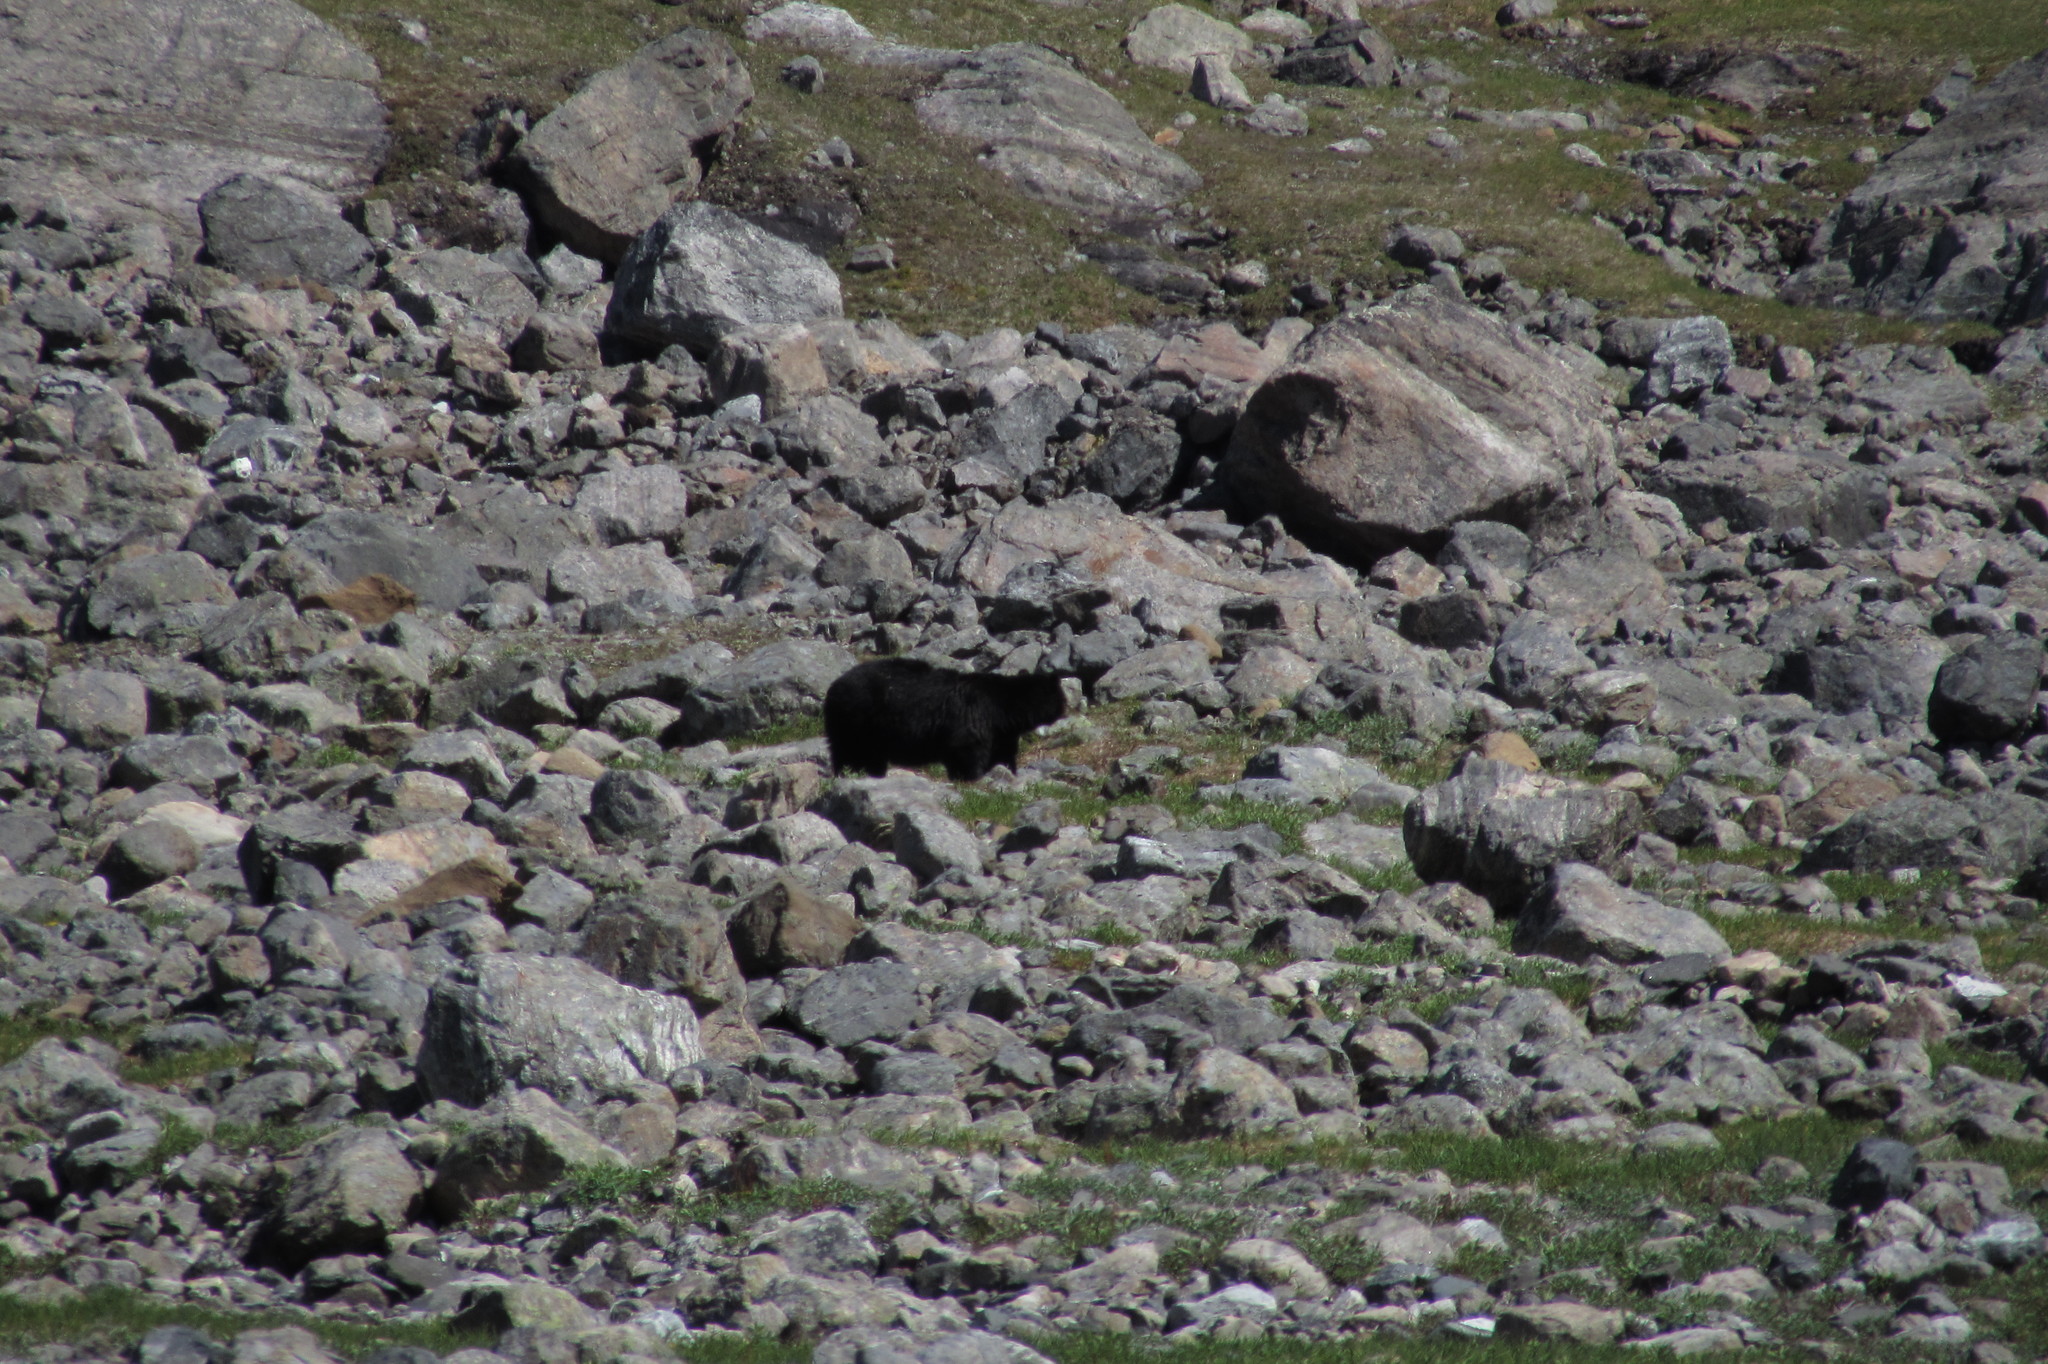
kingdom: Animalia
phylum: Chordata
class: Mammalia
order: Carnivora
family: Ursidae
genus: Ursus
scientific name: Ursus americanus
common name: American black bear
